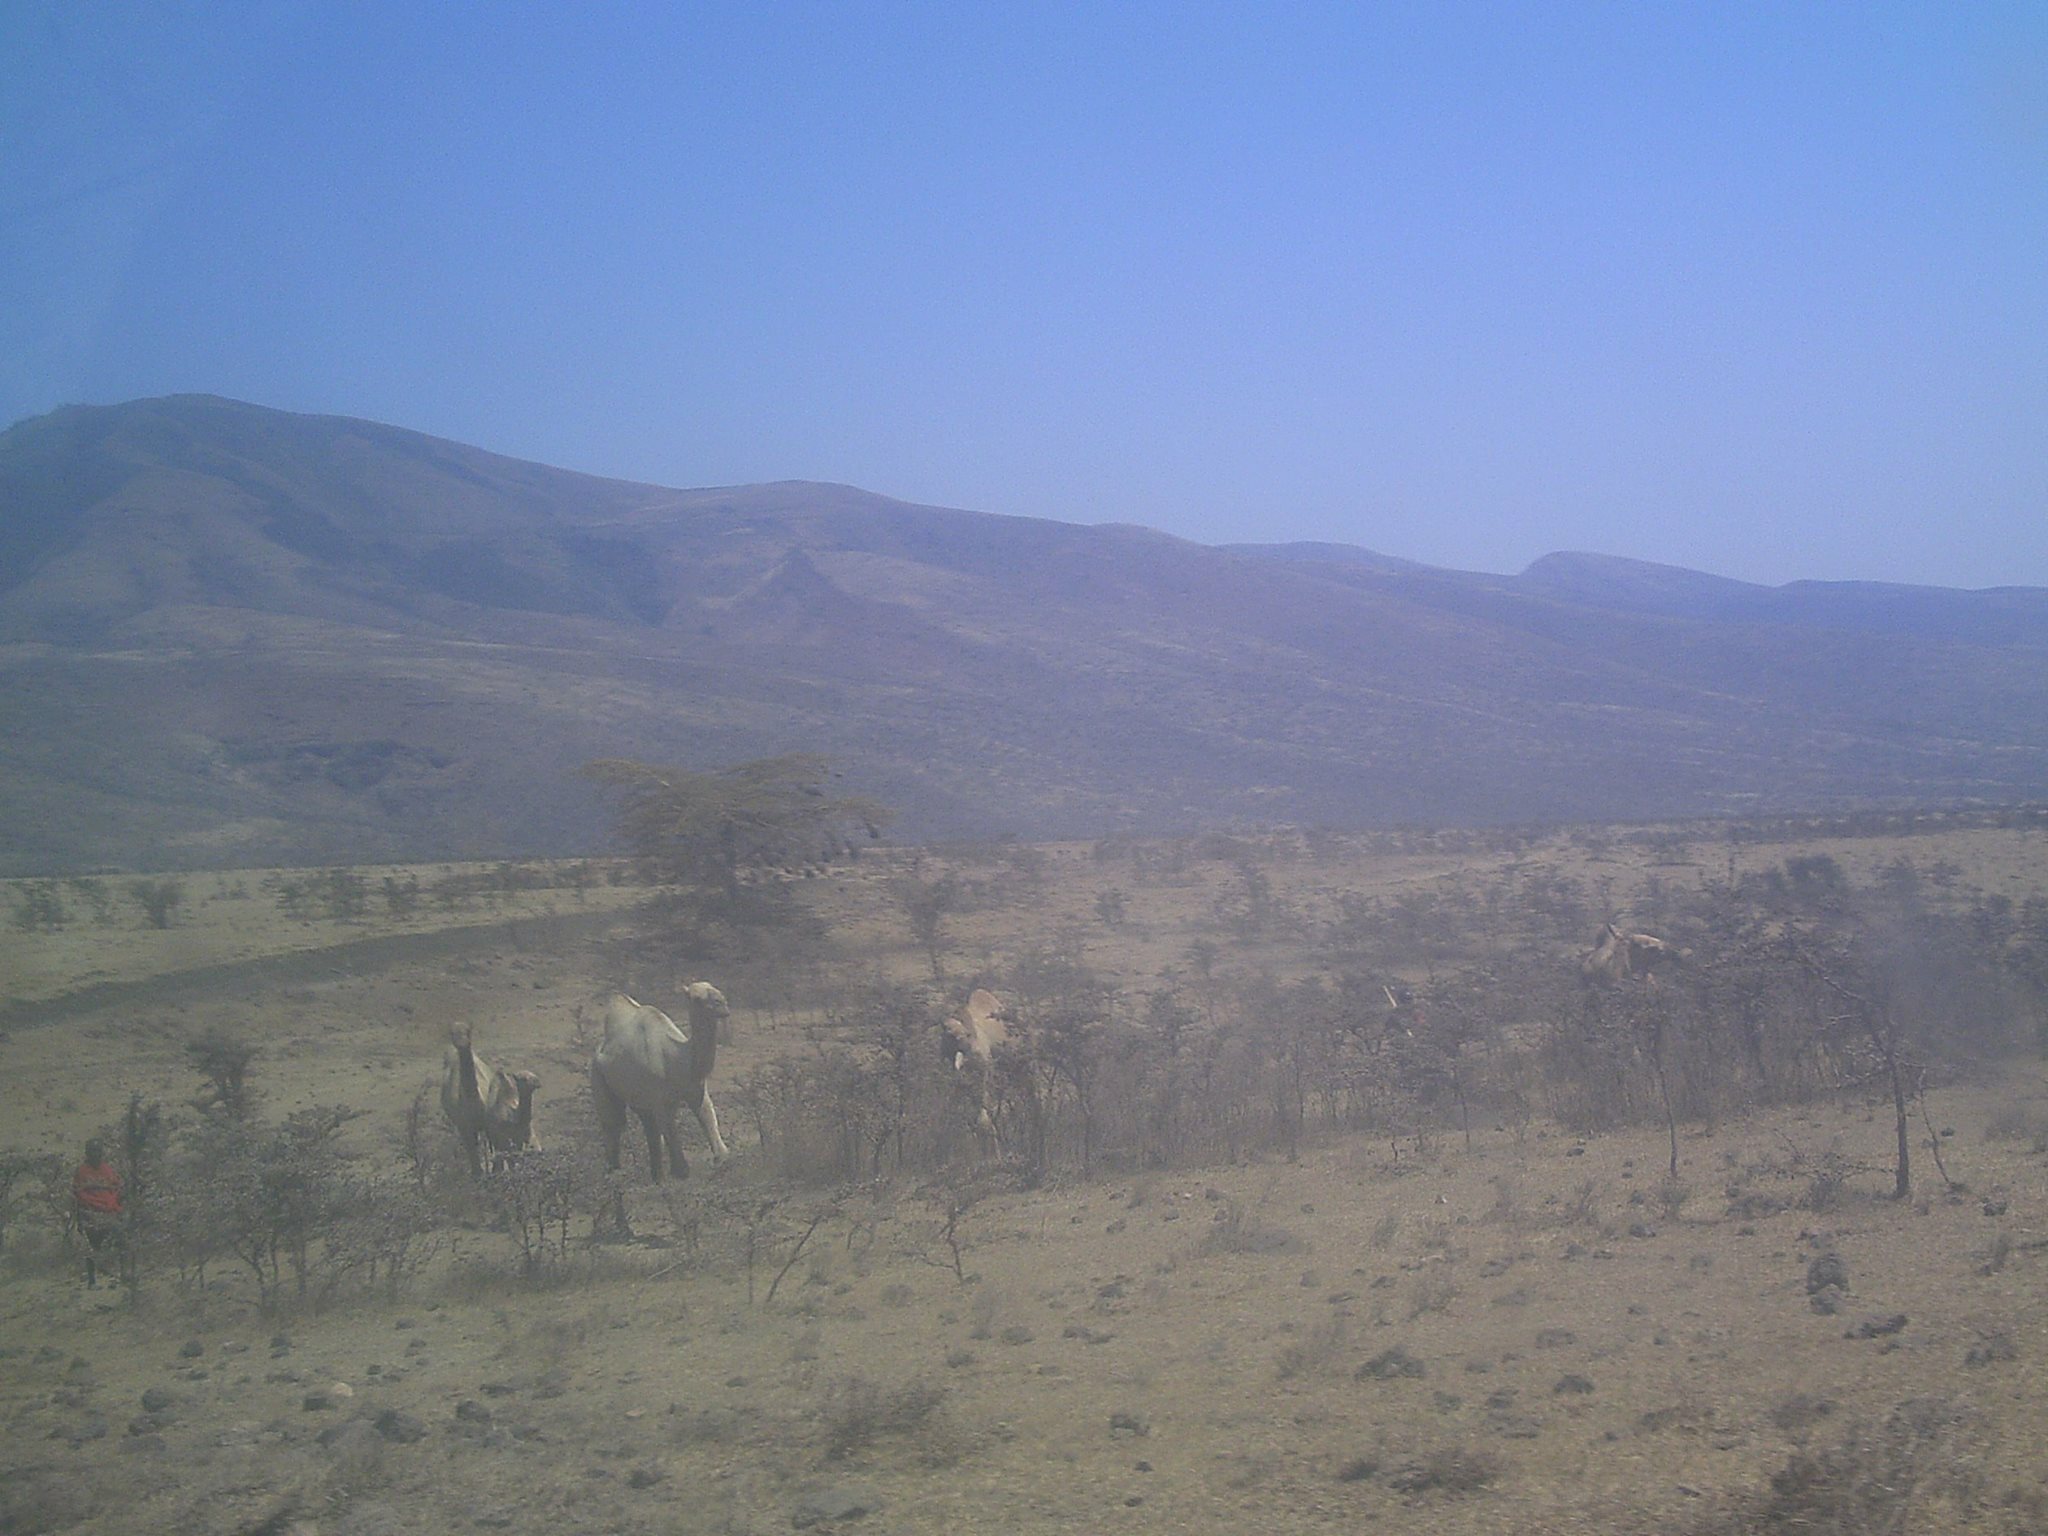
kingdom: Animalia
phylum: Chordata
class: Mammalia
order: Artiodactyla
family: Camelidae
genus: Camelus
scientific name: Camelus dromedarius
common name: One-humped camel
